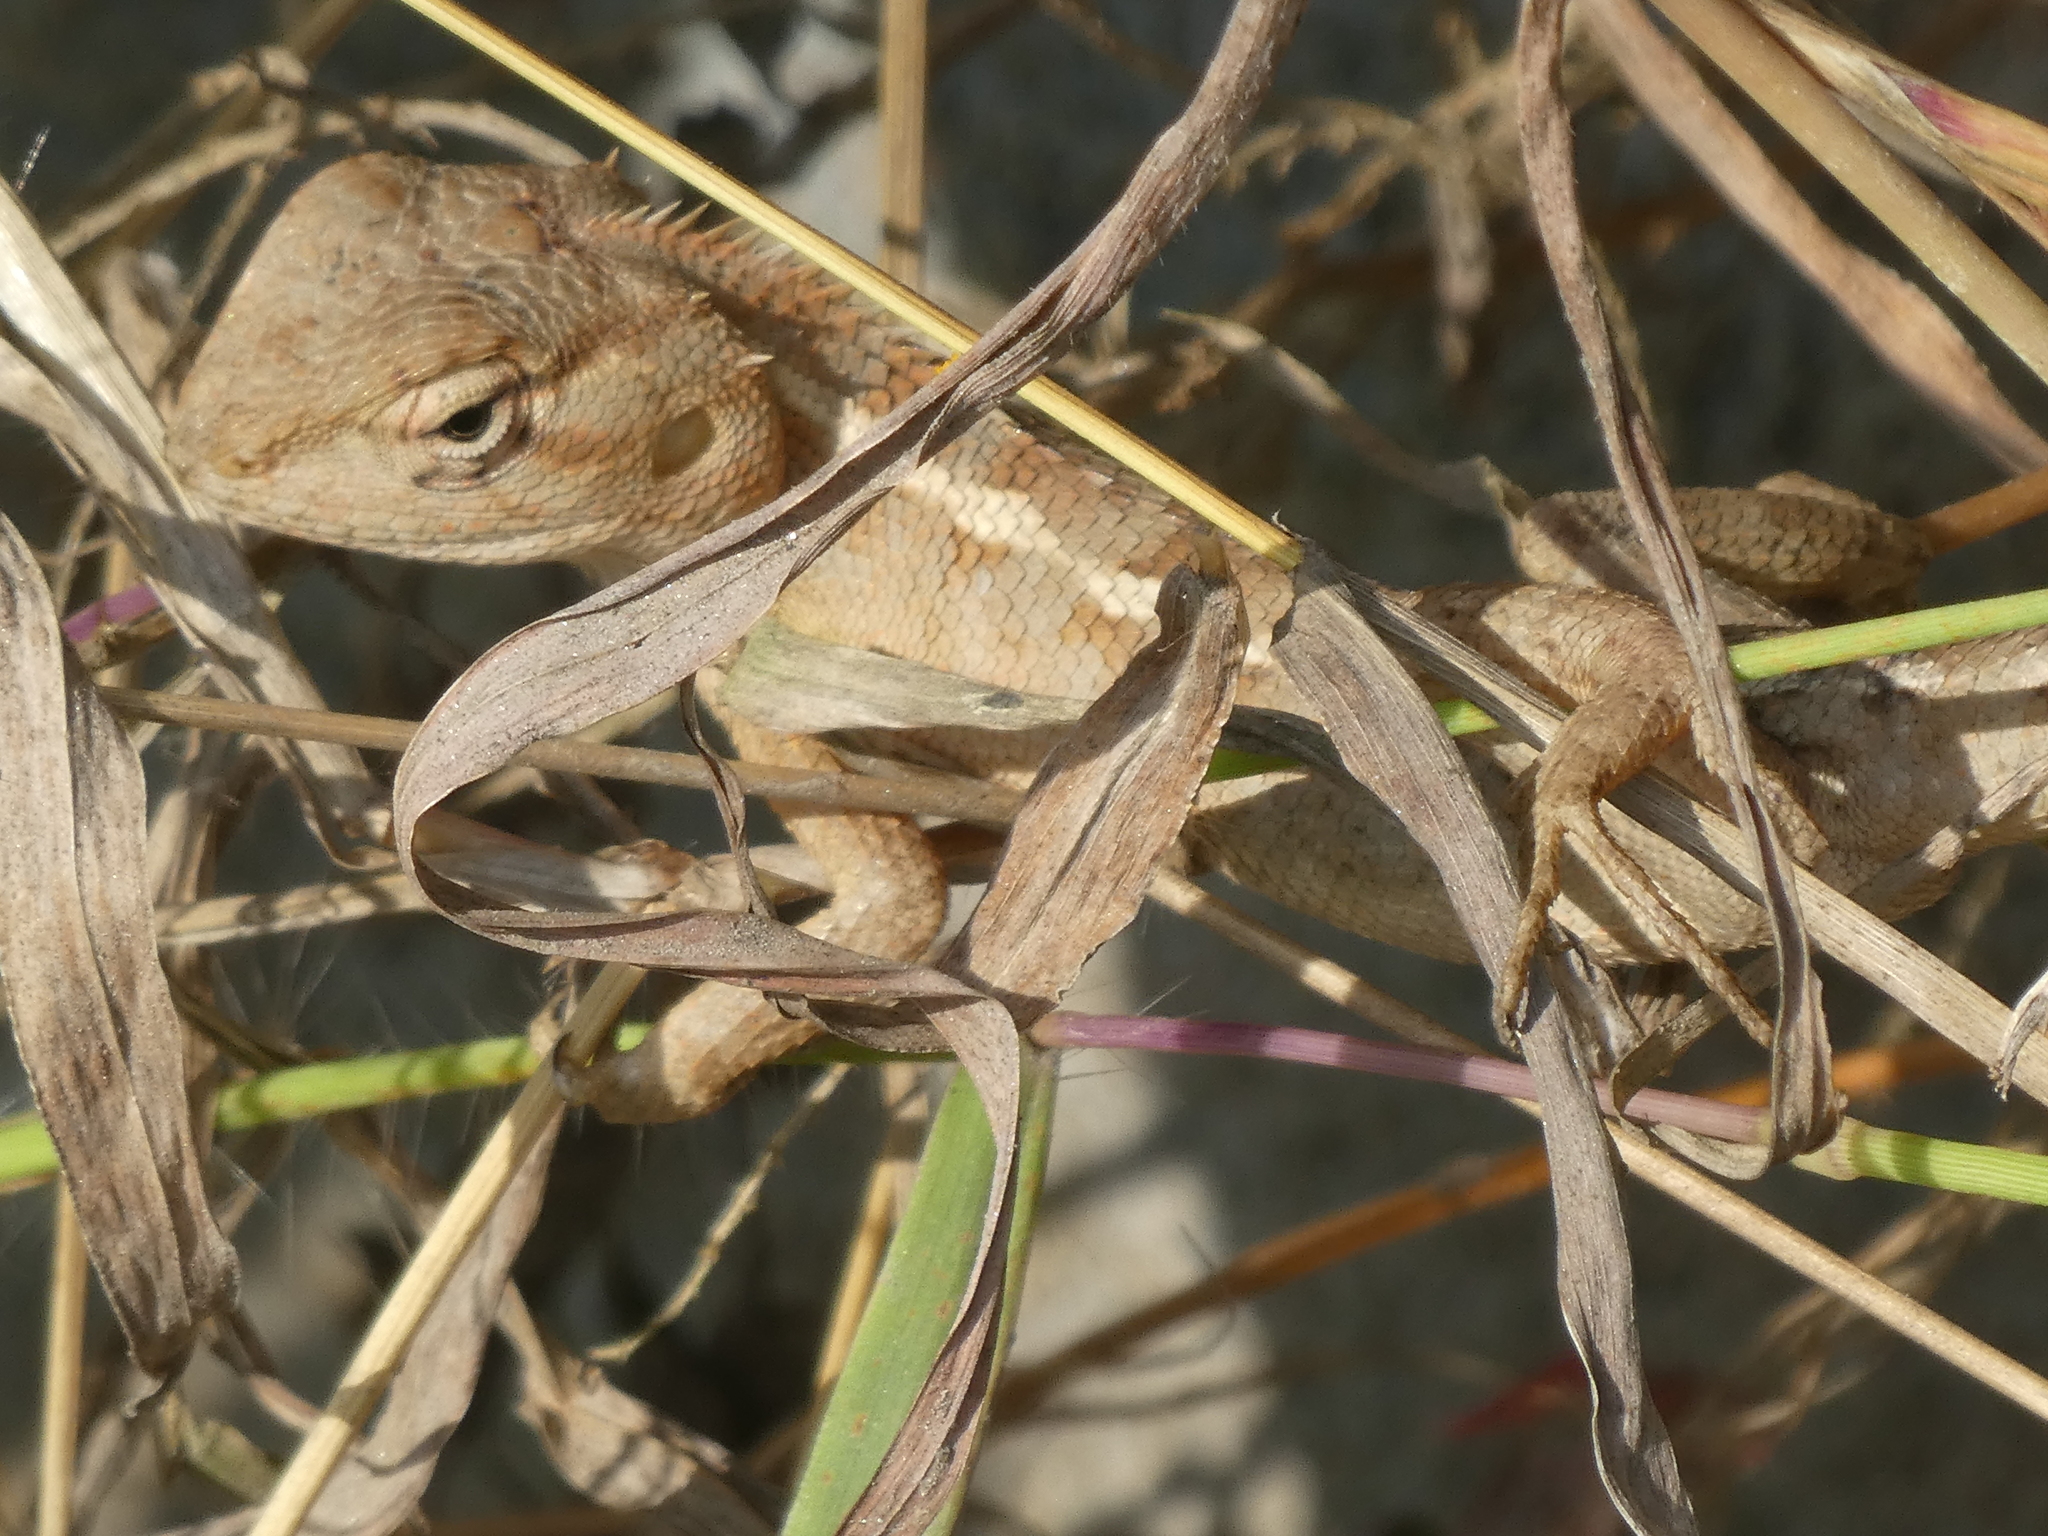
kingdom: Animalia
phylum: Chordata
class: Squamata
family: Agamidae
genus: Calotes
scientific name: Calotes versicolor
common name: Oriental garden lizard
